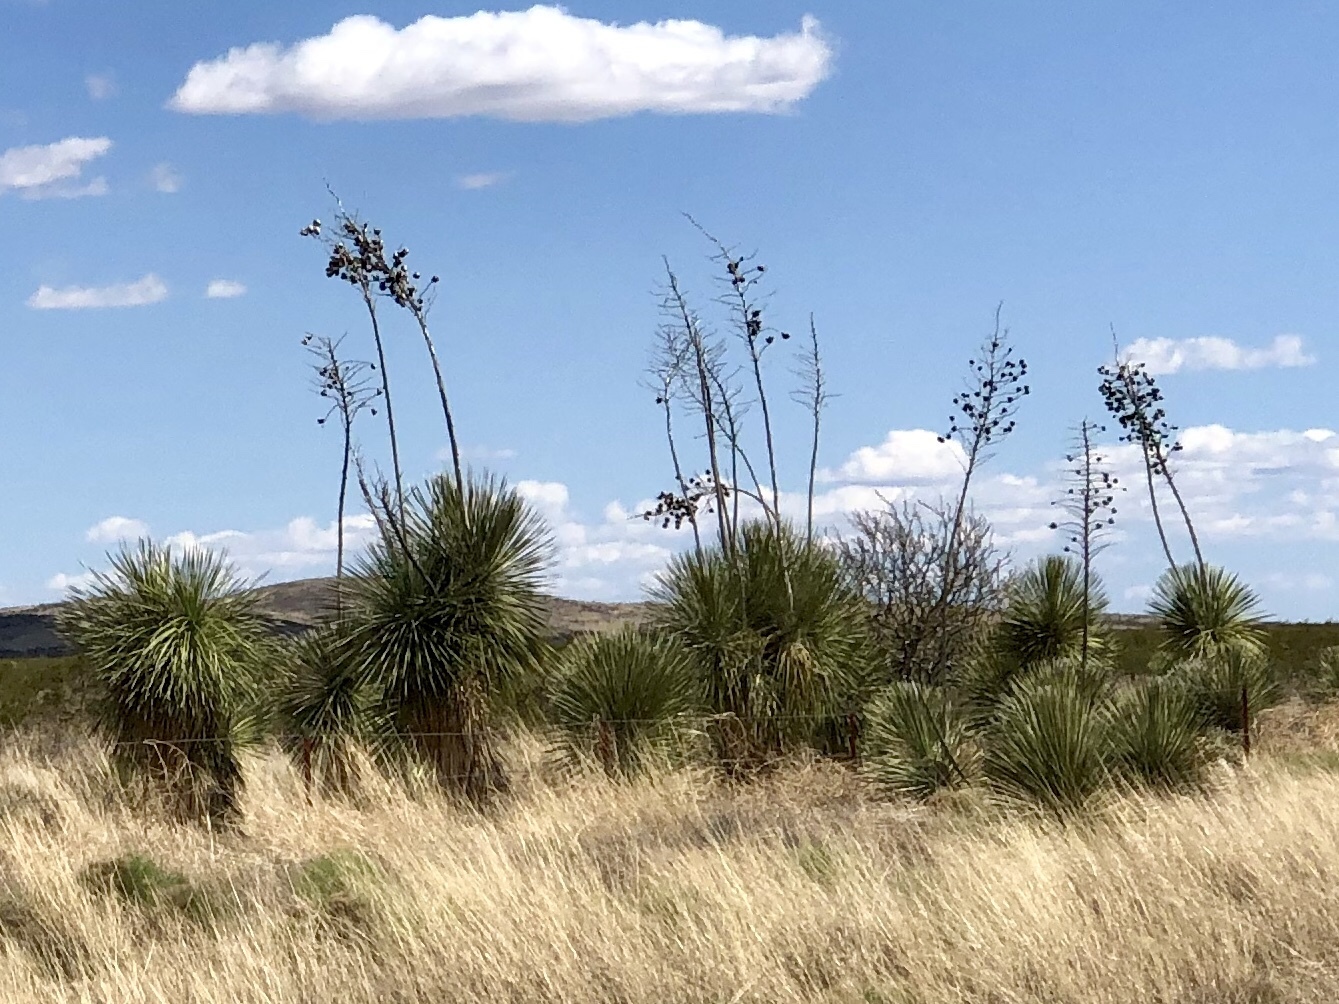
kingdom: Plantae
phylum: Tracheophyta
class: Liliopsida
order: Asparagales
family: Asparagaceae
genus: Yucca
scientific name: Yucca elata
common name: Palmella
